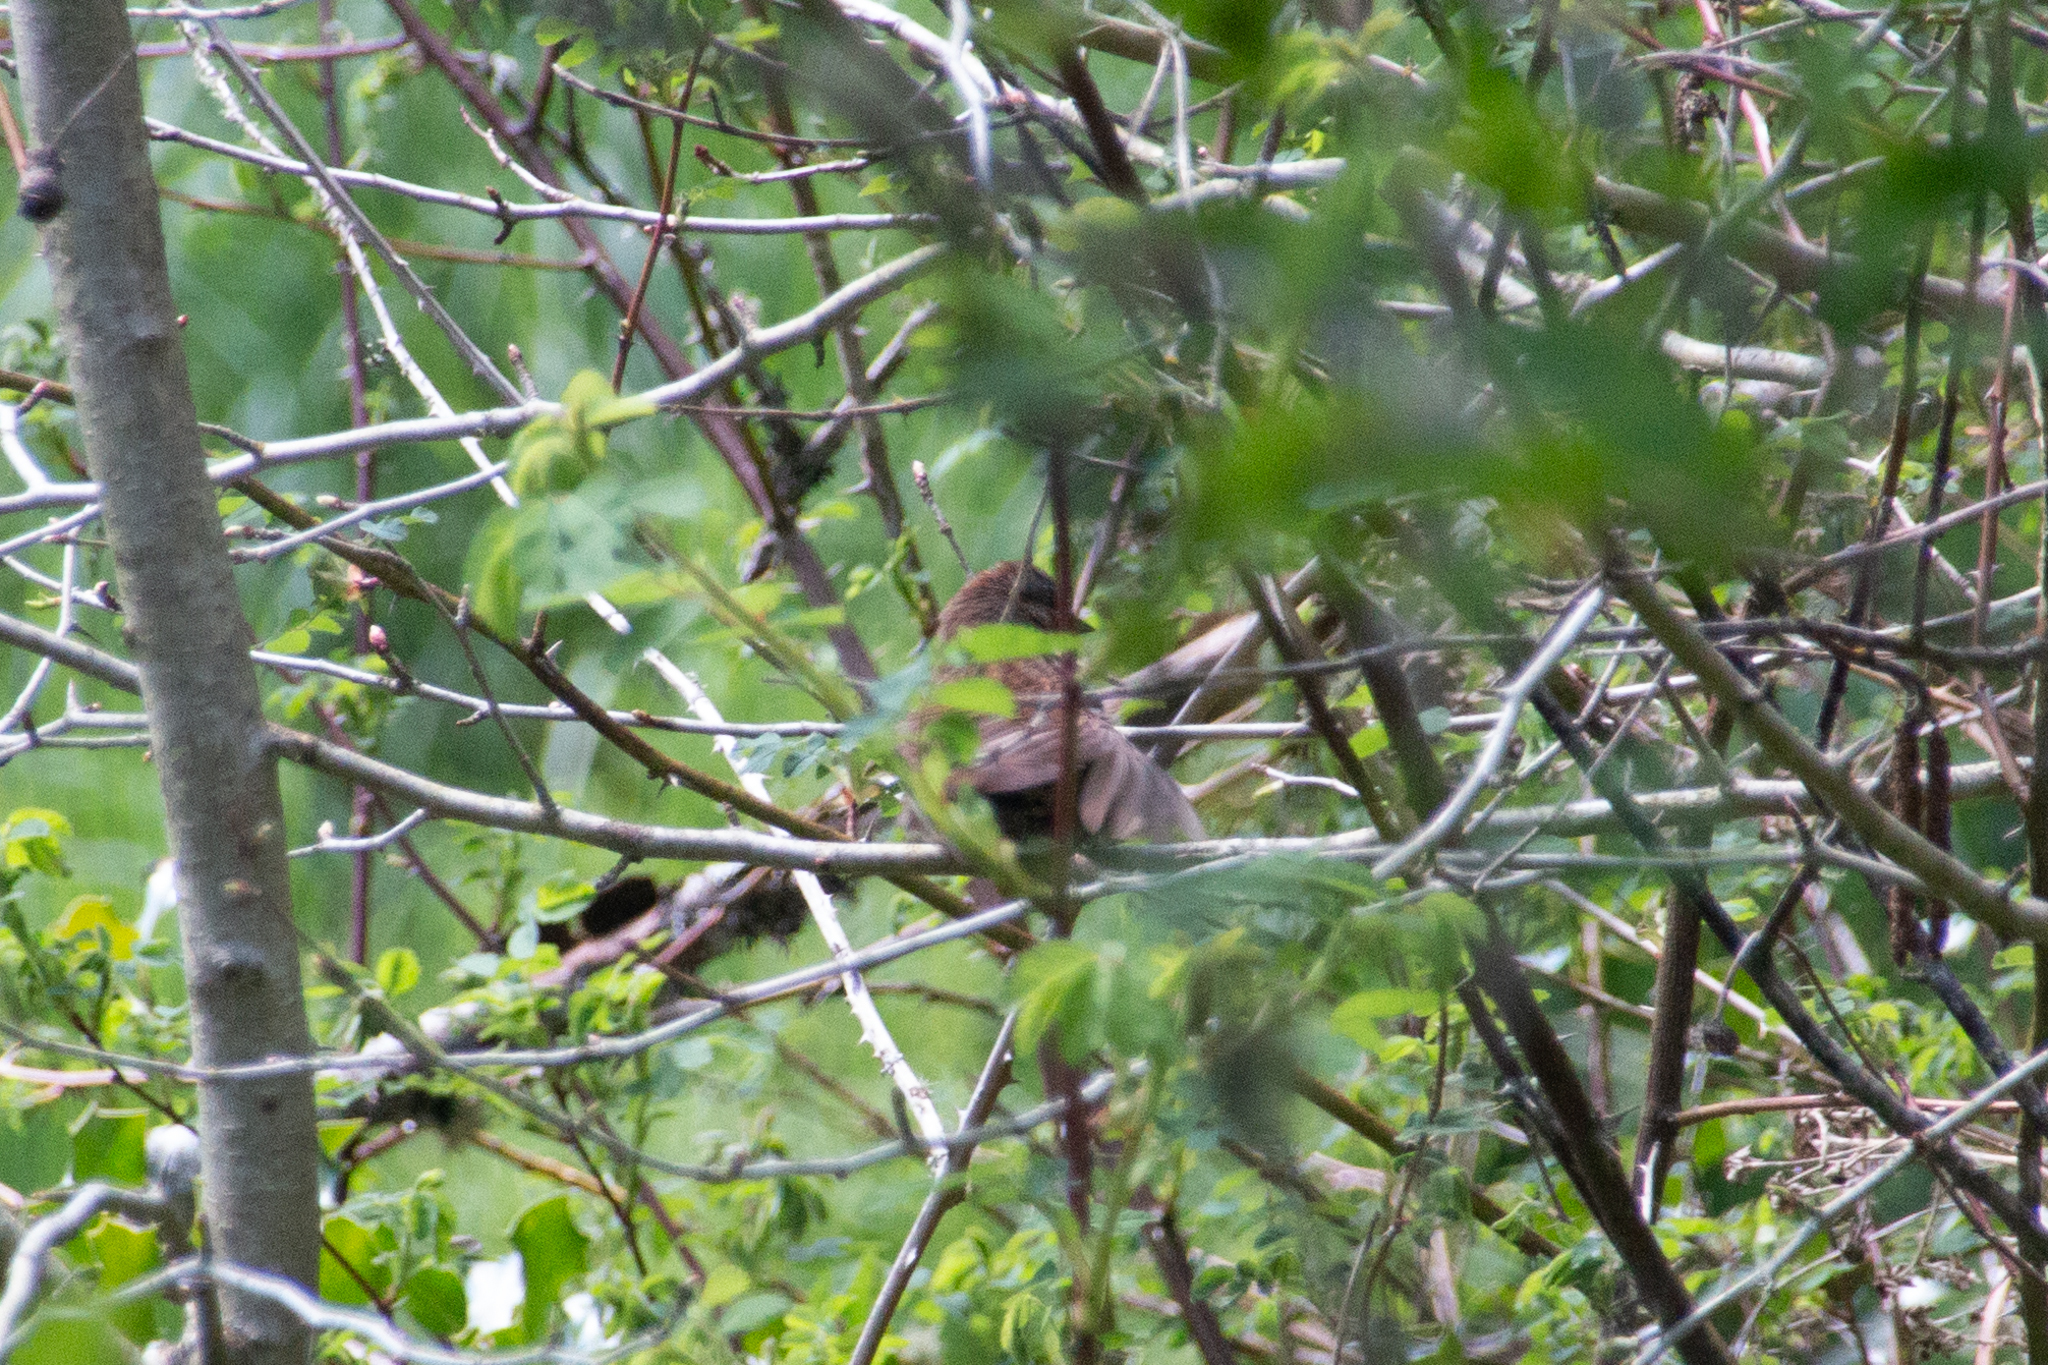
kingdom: Animalia
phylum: Chordata
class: Aves
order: Passeriformes
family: Passerellidae
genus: Melospiza
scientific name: Melospiza melodia
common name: Song sparrow
